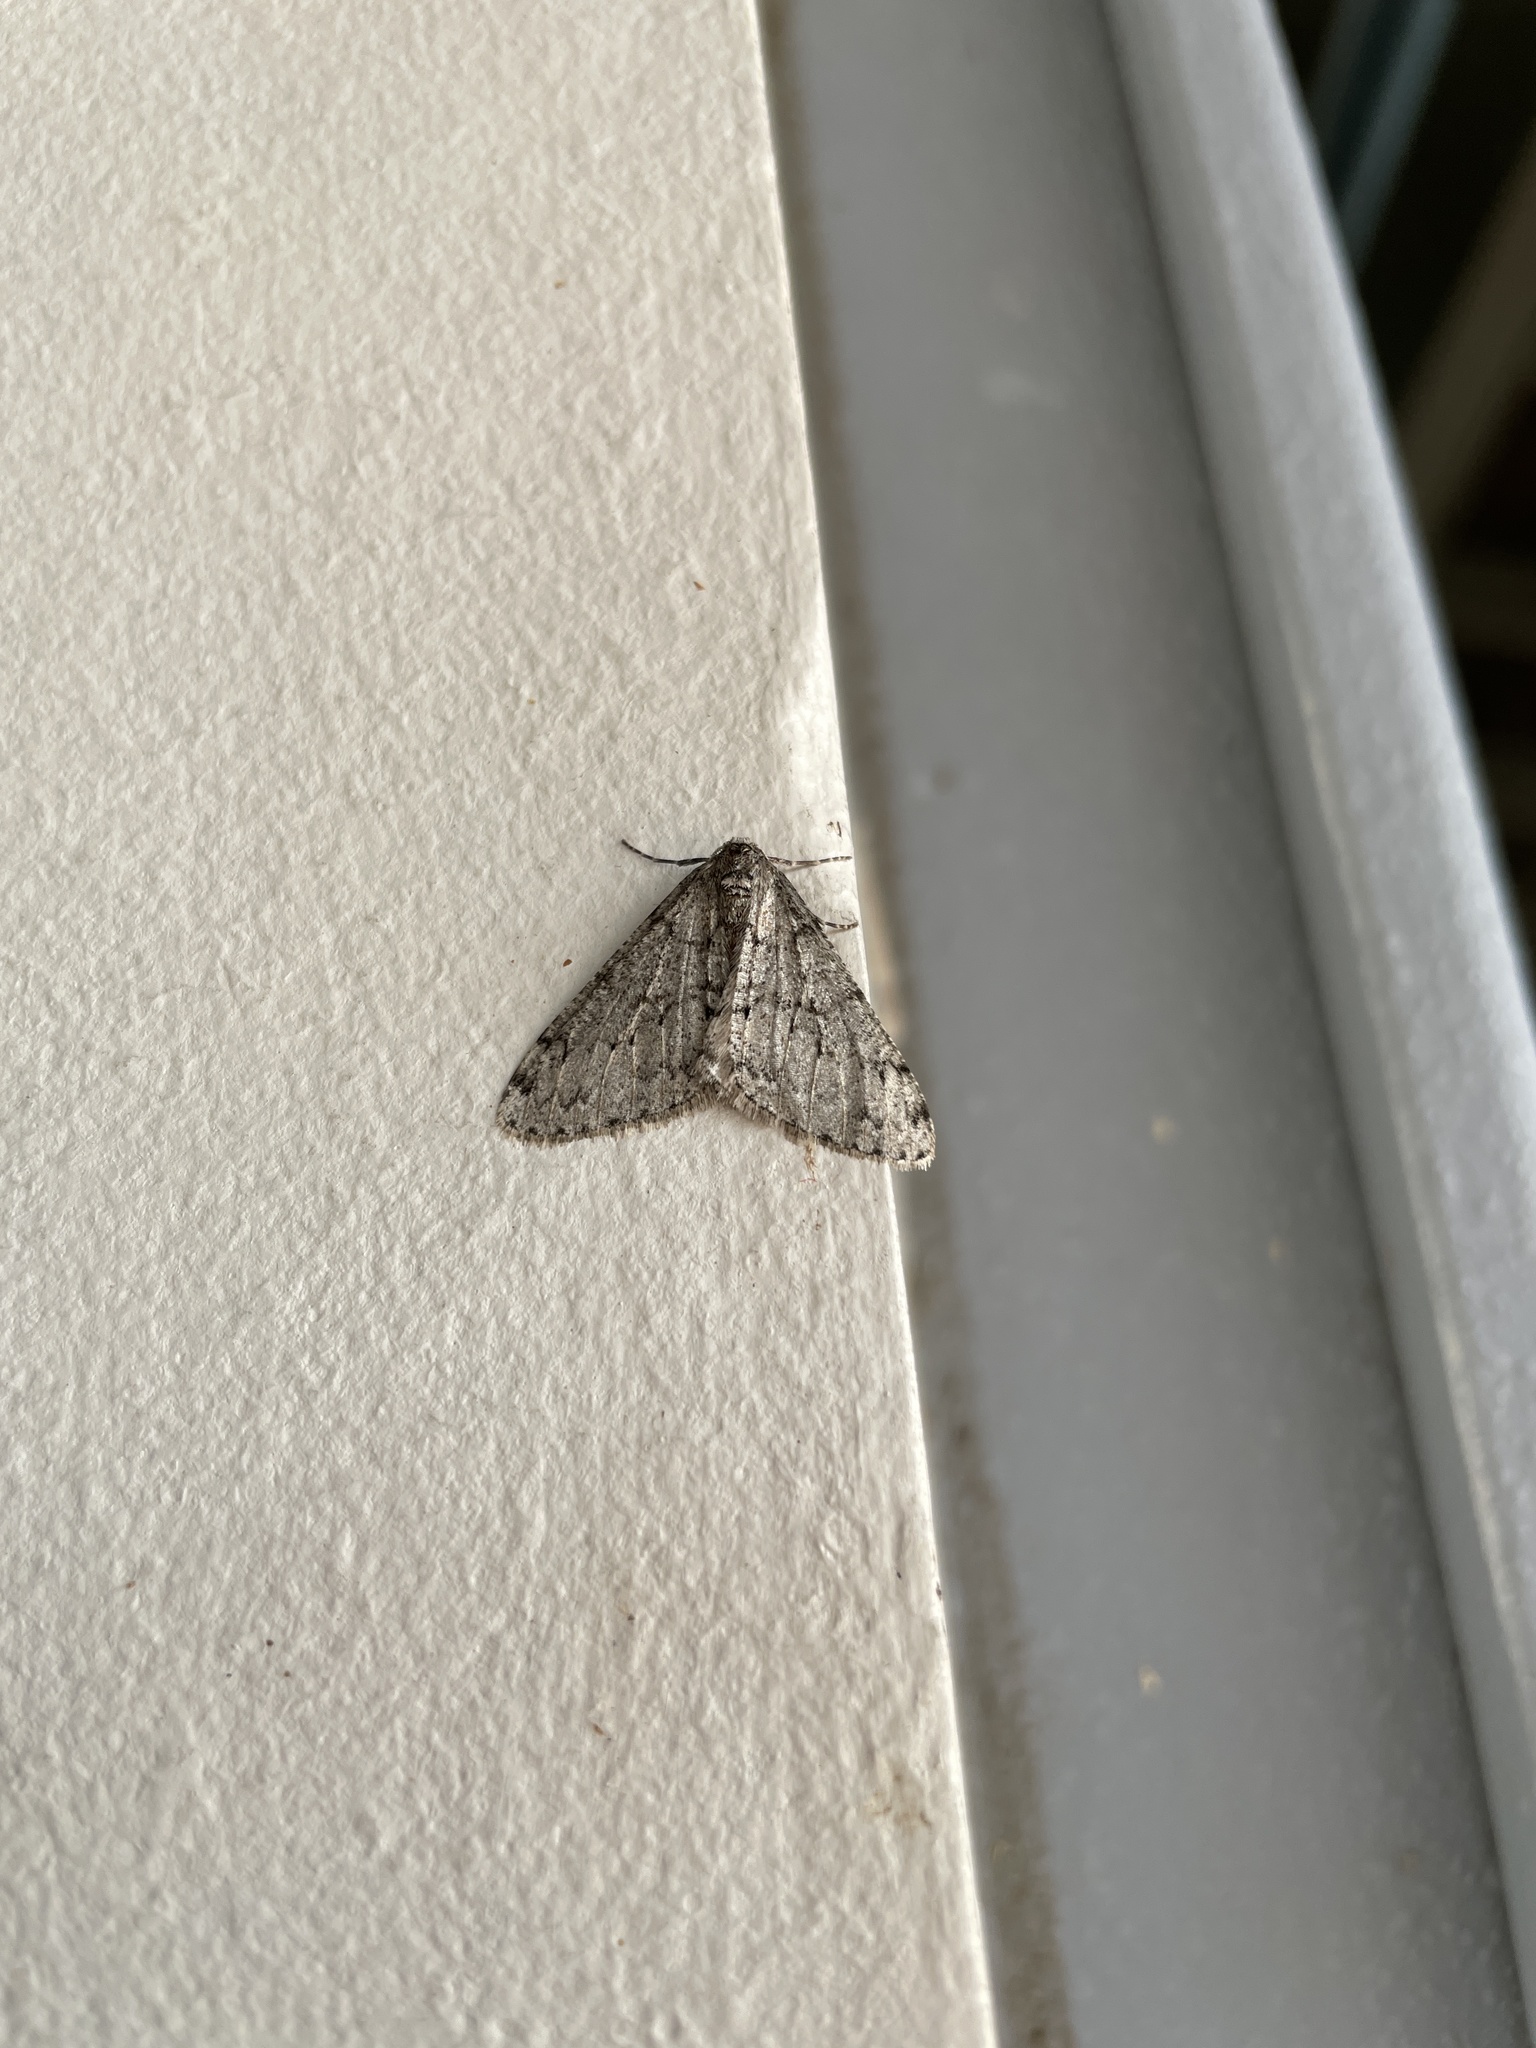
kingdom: Animalia
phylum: Arthropoda
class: Insecta
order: Lepidoptera
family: Geometridae
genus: Phigalia
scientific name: Phigalia denticulata
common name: Toothed phigalia
